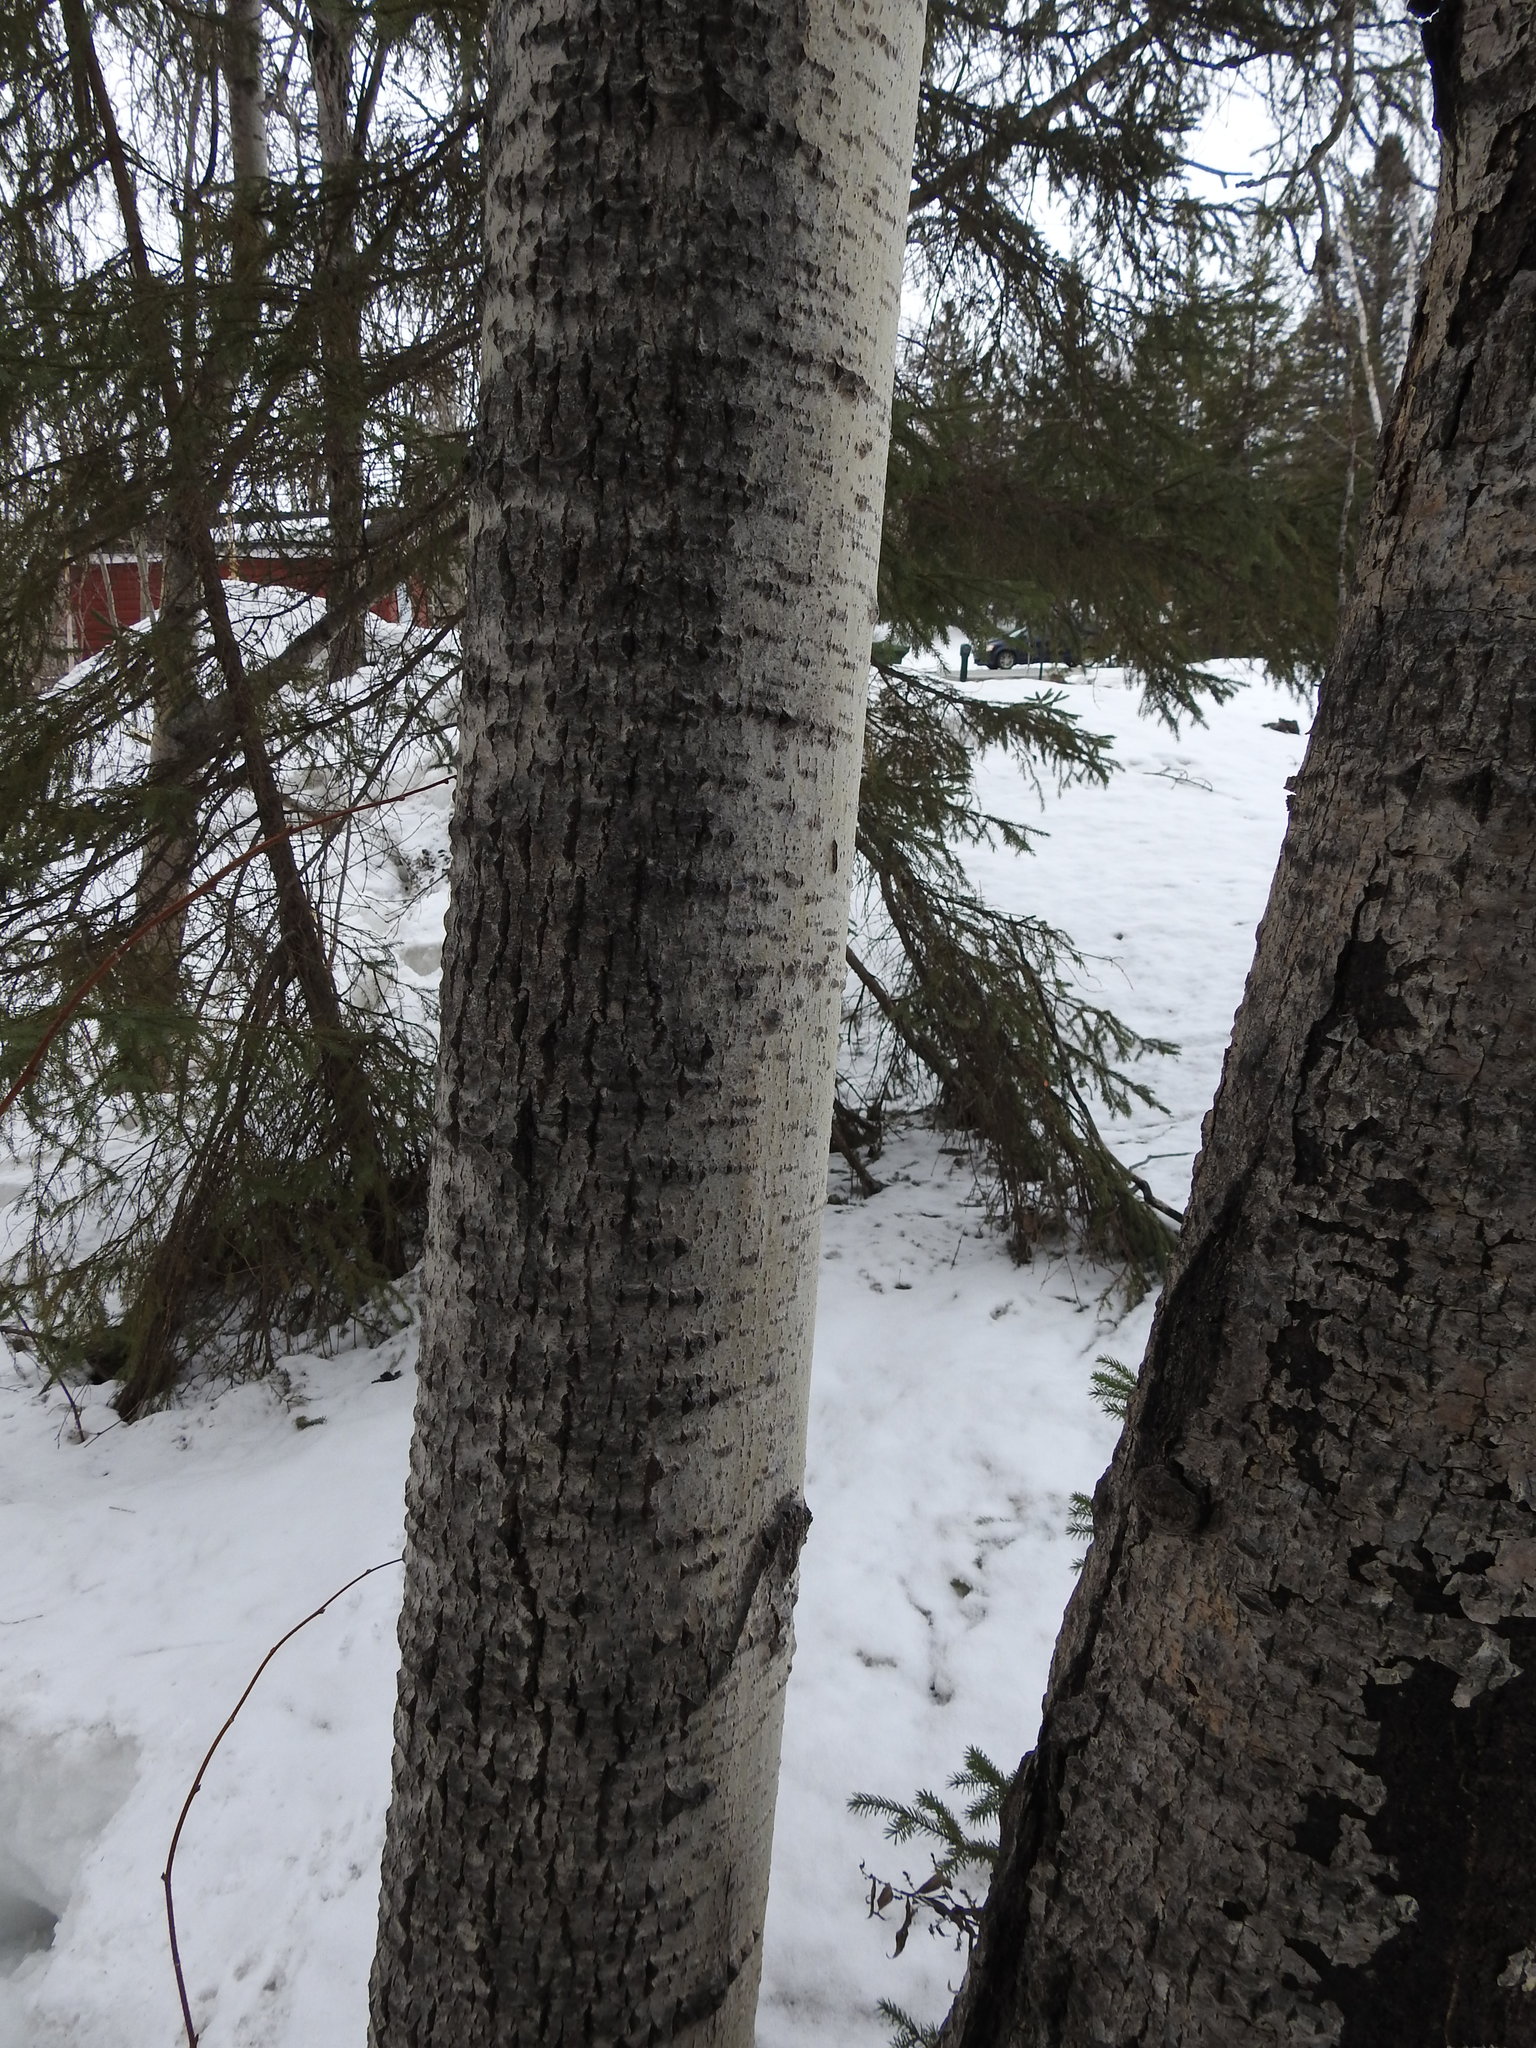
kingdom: Plantae
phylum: Tracheophyta
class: Magnoliopsida
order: Malpighiales
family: Salicaceae
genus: Populus
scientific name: Populus tremuloides
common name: Quaking aspen
